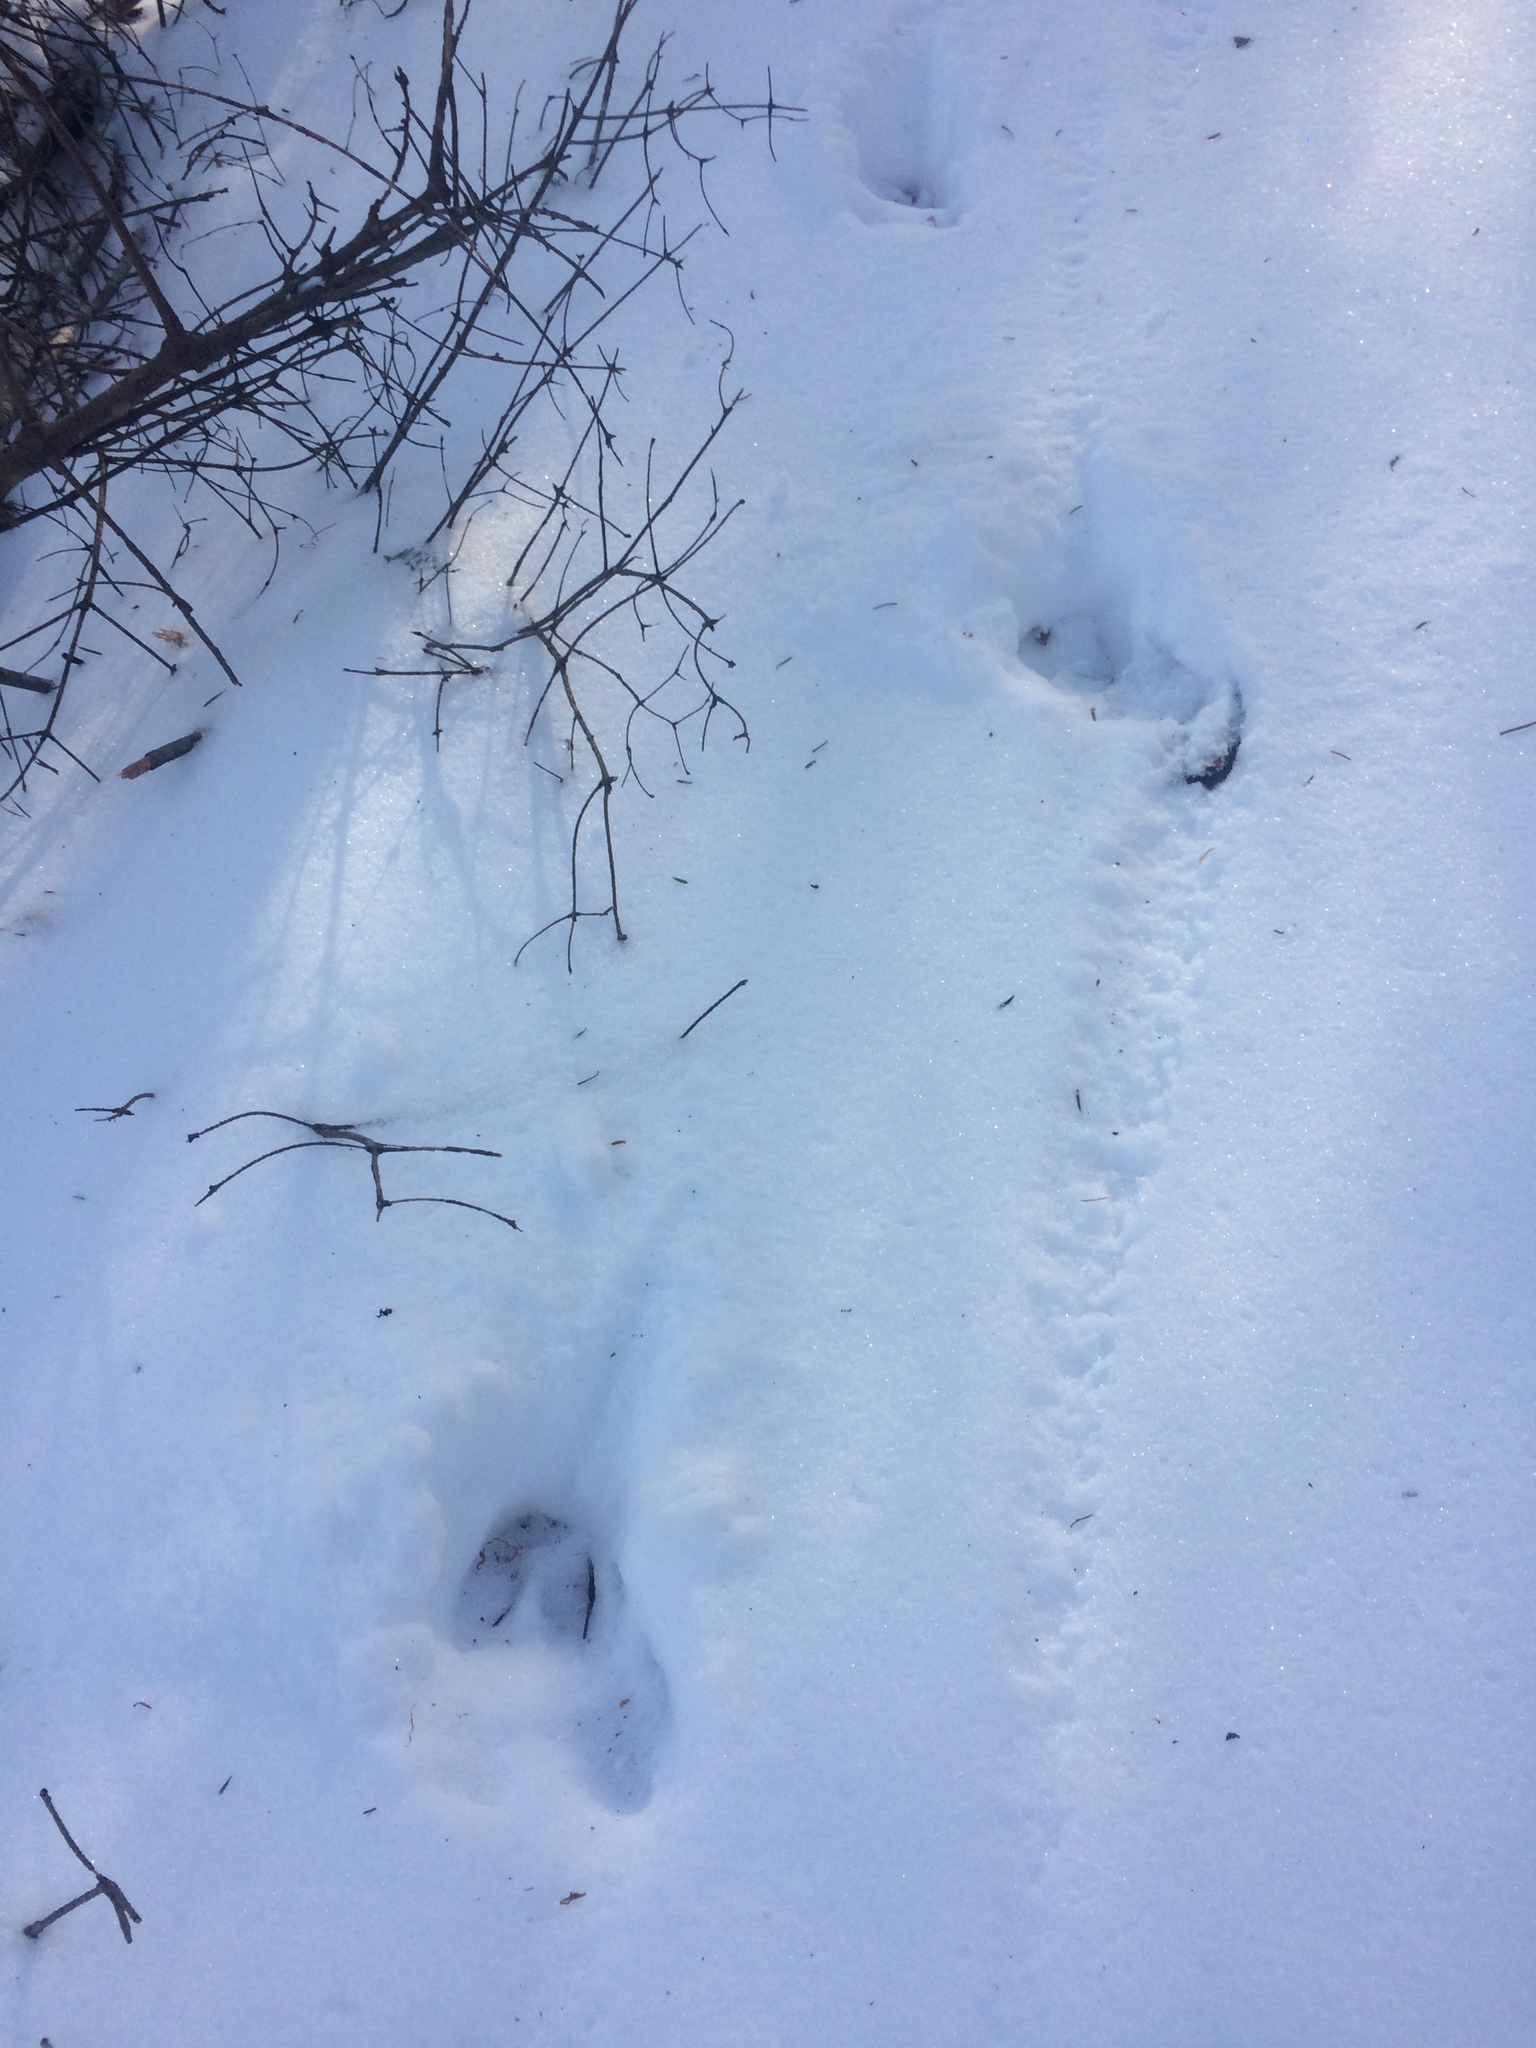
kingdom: Animalia
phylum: Chordata
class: Mammalia
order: Artiodactyla
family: Cervidae
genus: Odocoileus
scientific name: Odocoileus virginianus
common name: White-tailed deer
